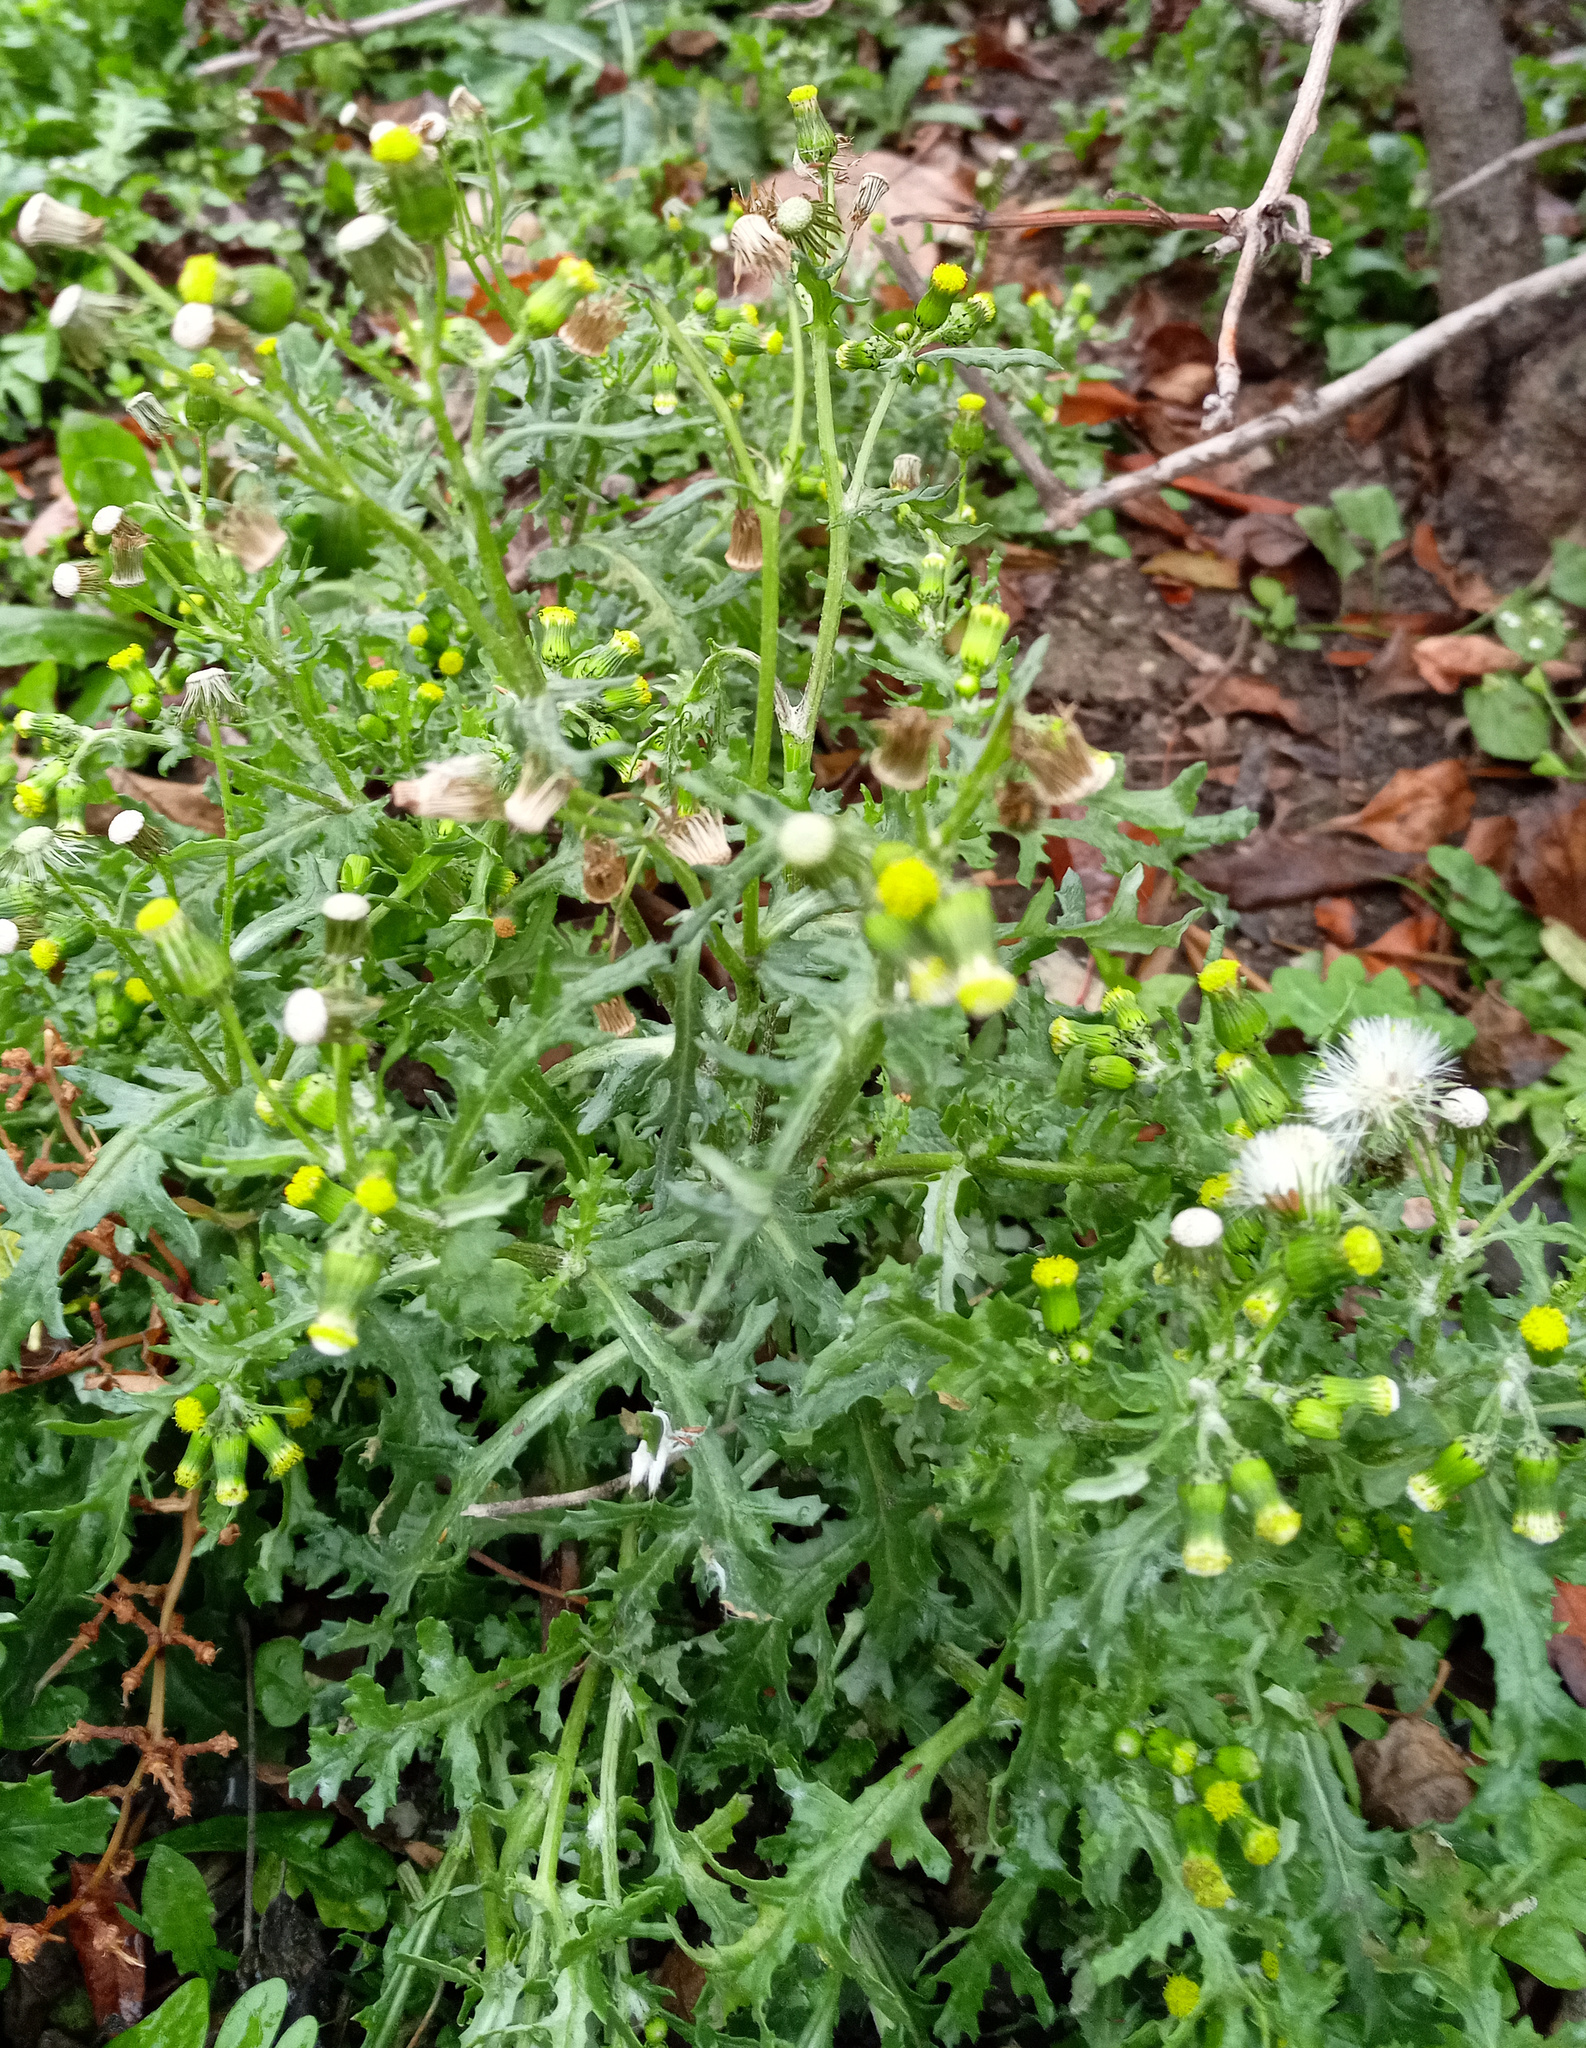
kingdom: Plantae
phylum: Tracheophyta
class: Magnoliopsida
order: Asterales
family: Asteraceae
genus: Senecio
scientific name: Senecio vulgaris
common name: Old-man-in-the-spring
